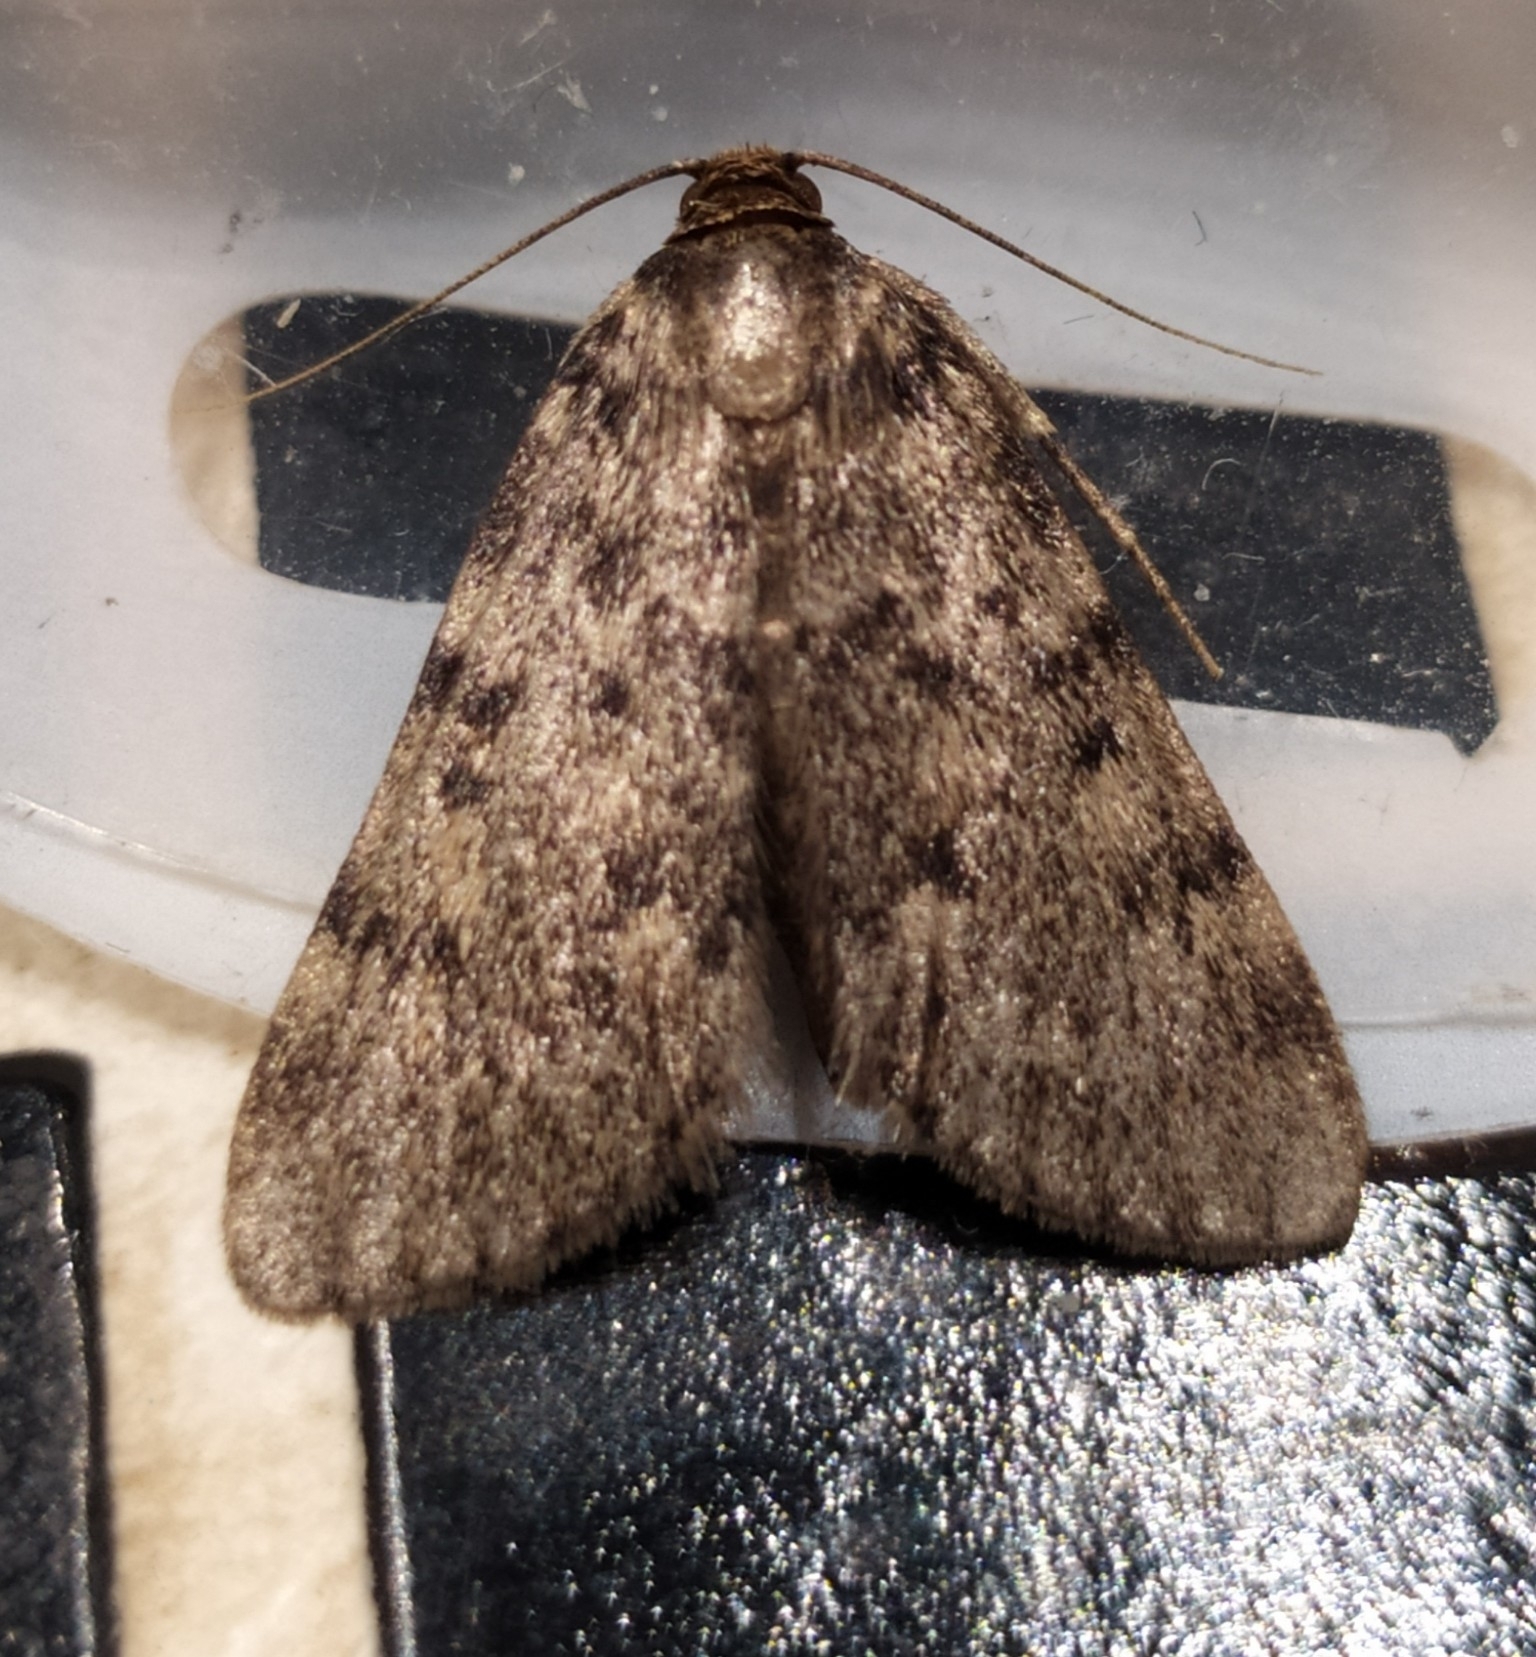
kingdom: Animalia
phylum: Arthropoda
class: Insecta
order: Lepidoptera
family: Pyralidae
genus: Aglossa
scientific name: Aglossa pinguinalis
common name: Large tabby
